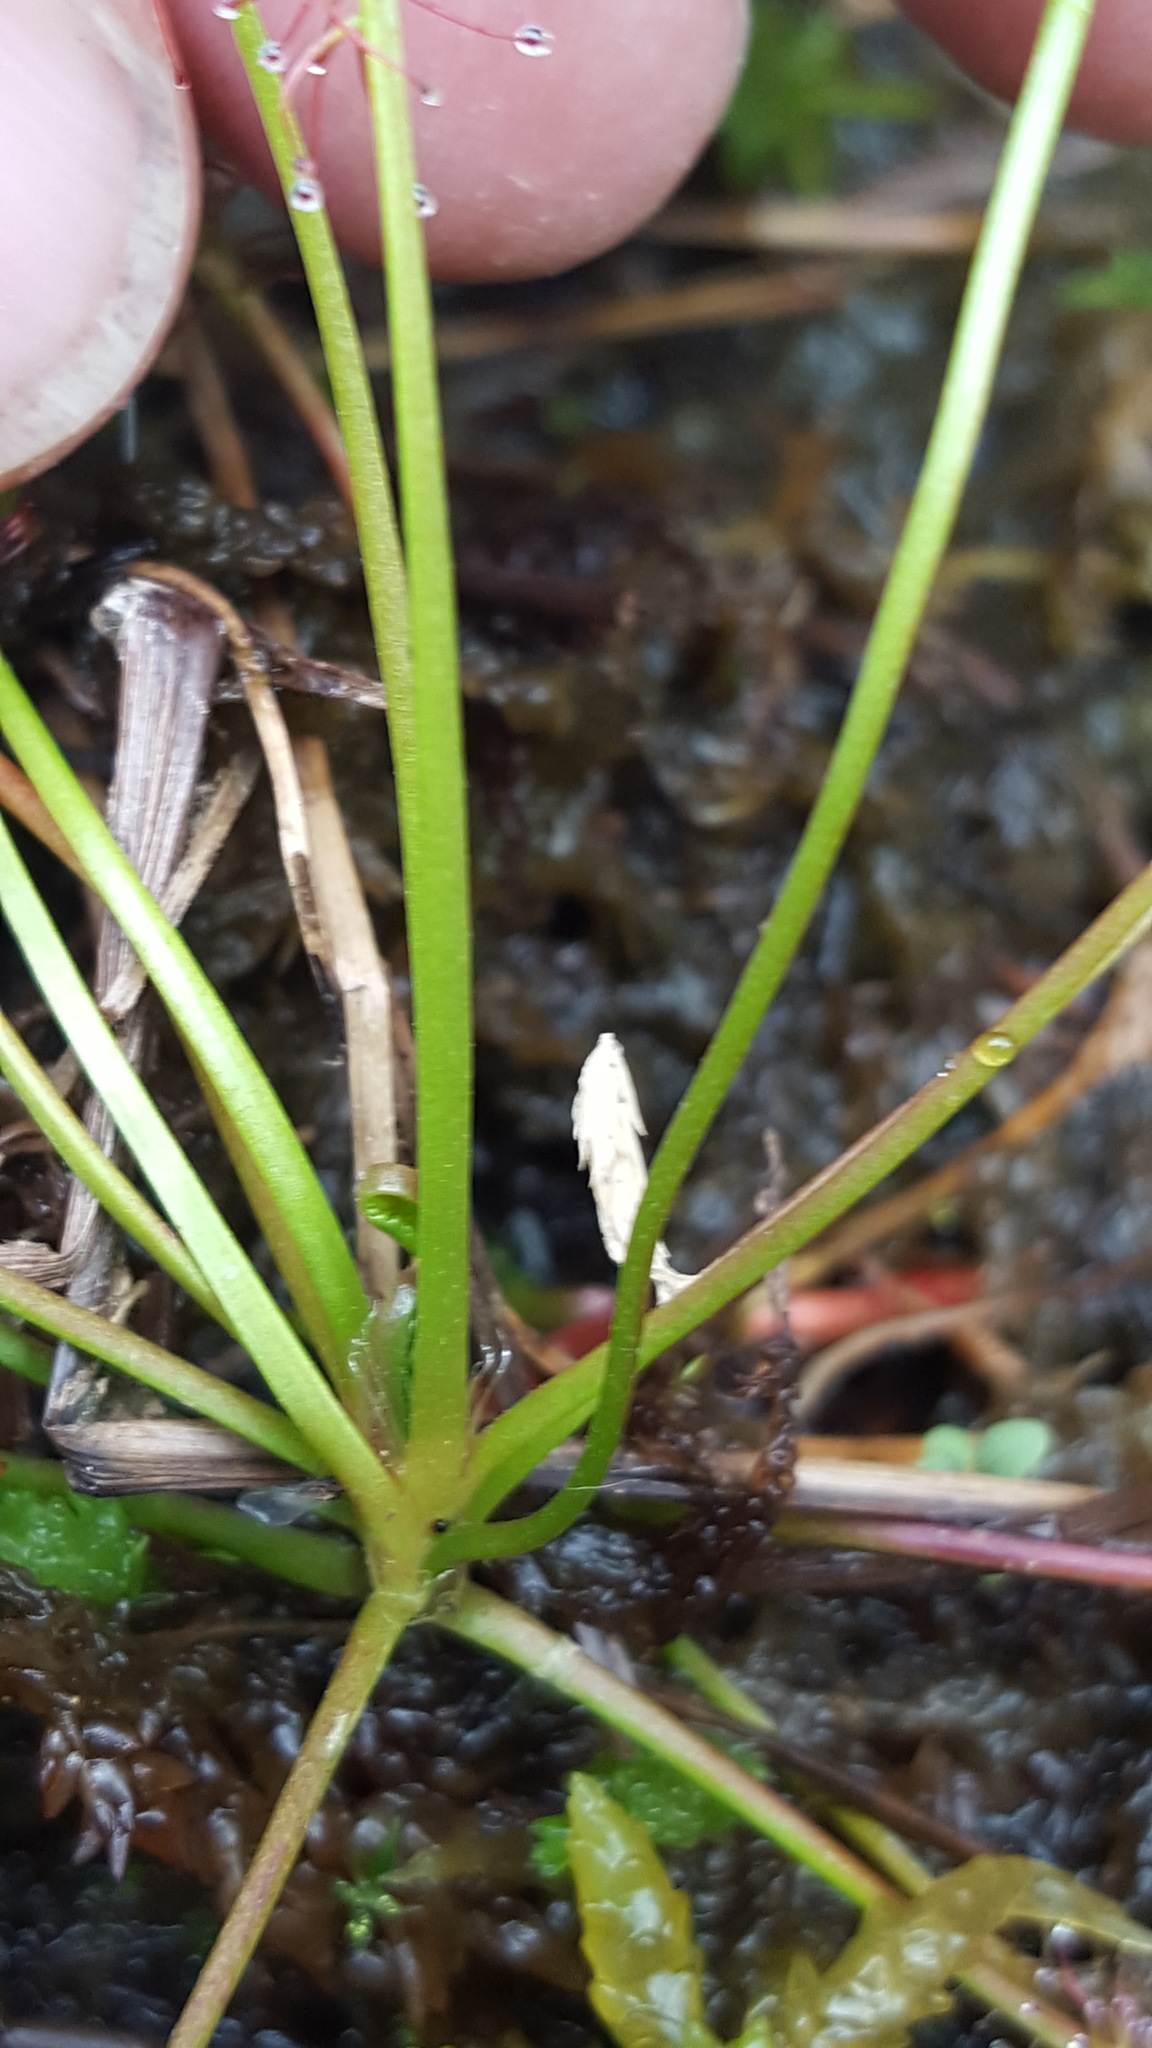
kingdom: Plantae
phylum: Tracheophyta
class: Magnoliopsida
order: Caryophyllales
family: Droseraceae
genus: Drosera
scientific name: Drosera intermedia
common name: Oblong-leaved sundew
